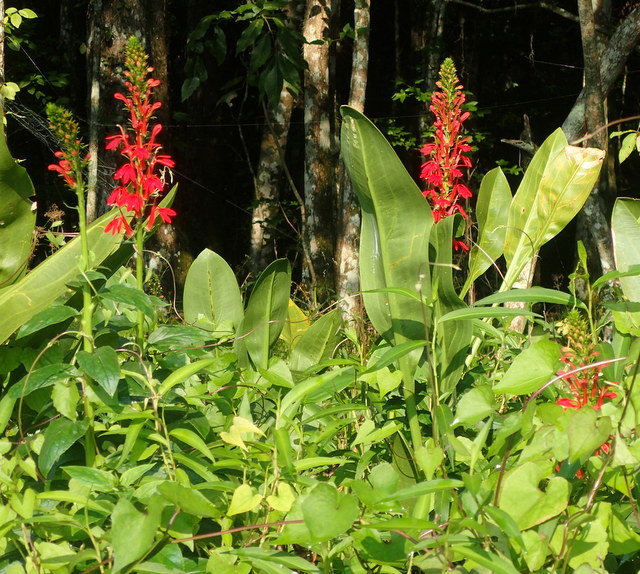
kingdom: Plantae
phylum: Tracheophyta
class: Magnoliopsida
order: Asterales
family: Campanulaceae
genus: Lobelia
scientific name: Lobelia cardinalis
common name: Cardinal flower
